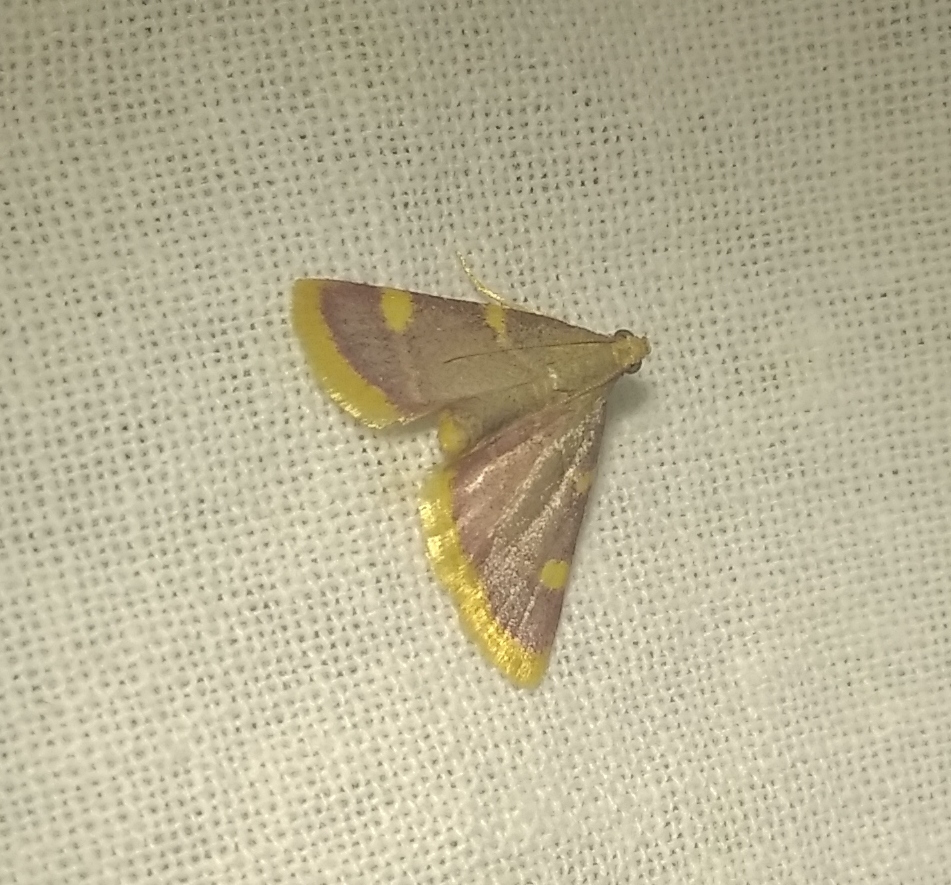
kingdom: Animalia
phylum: Arthropoda
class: Insecta
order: Lepidoptera
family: Pyralidae
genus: Hypsopygia
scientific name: Hypsopygia costalis
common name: Gold triangle
